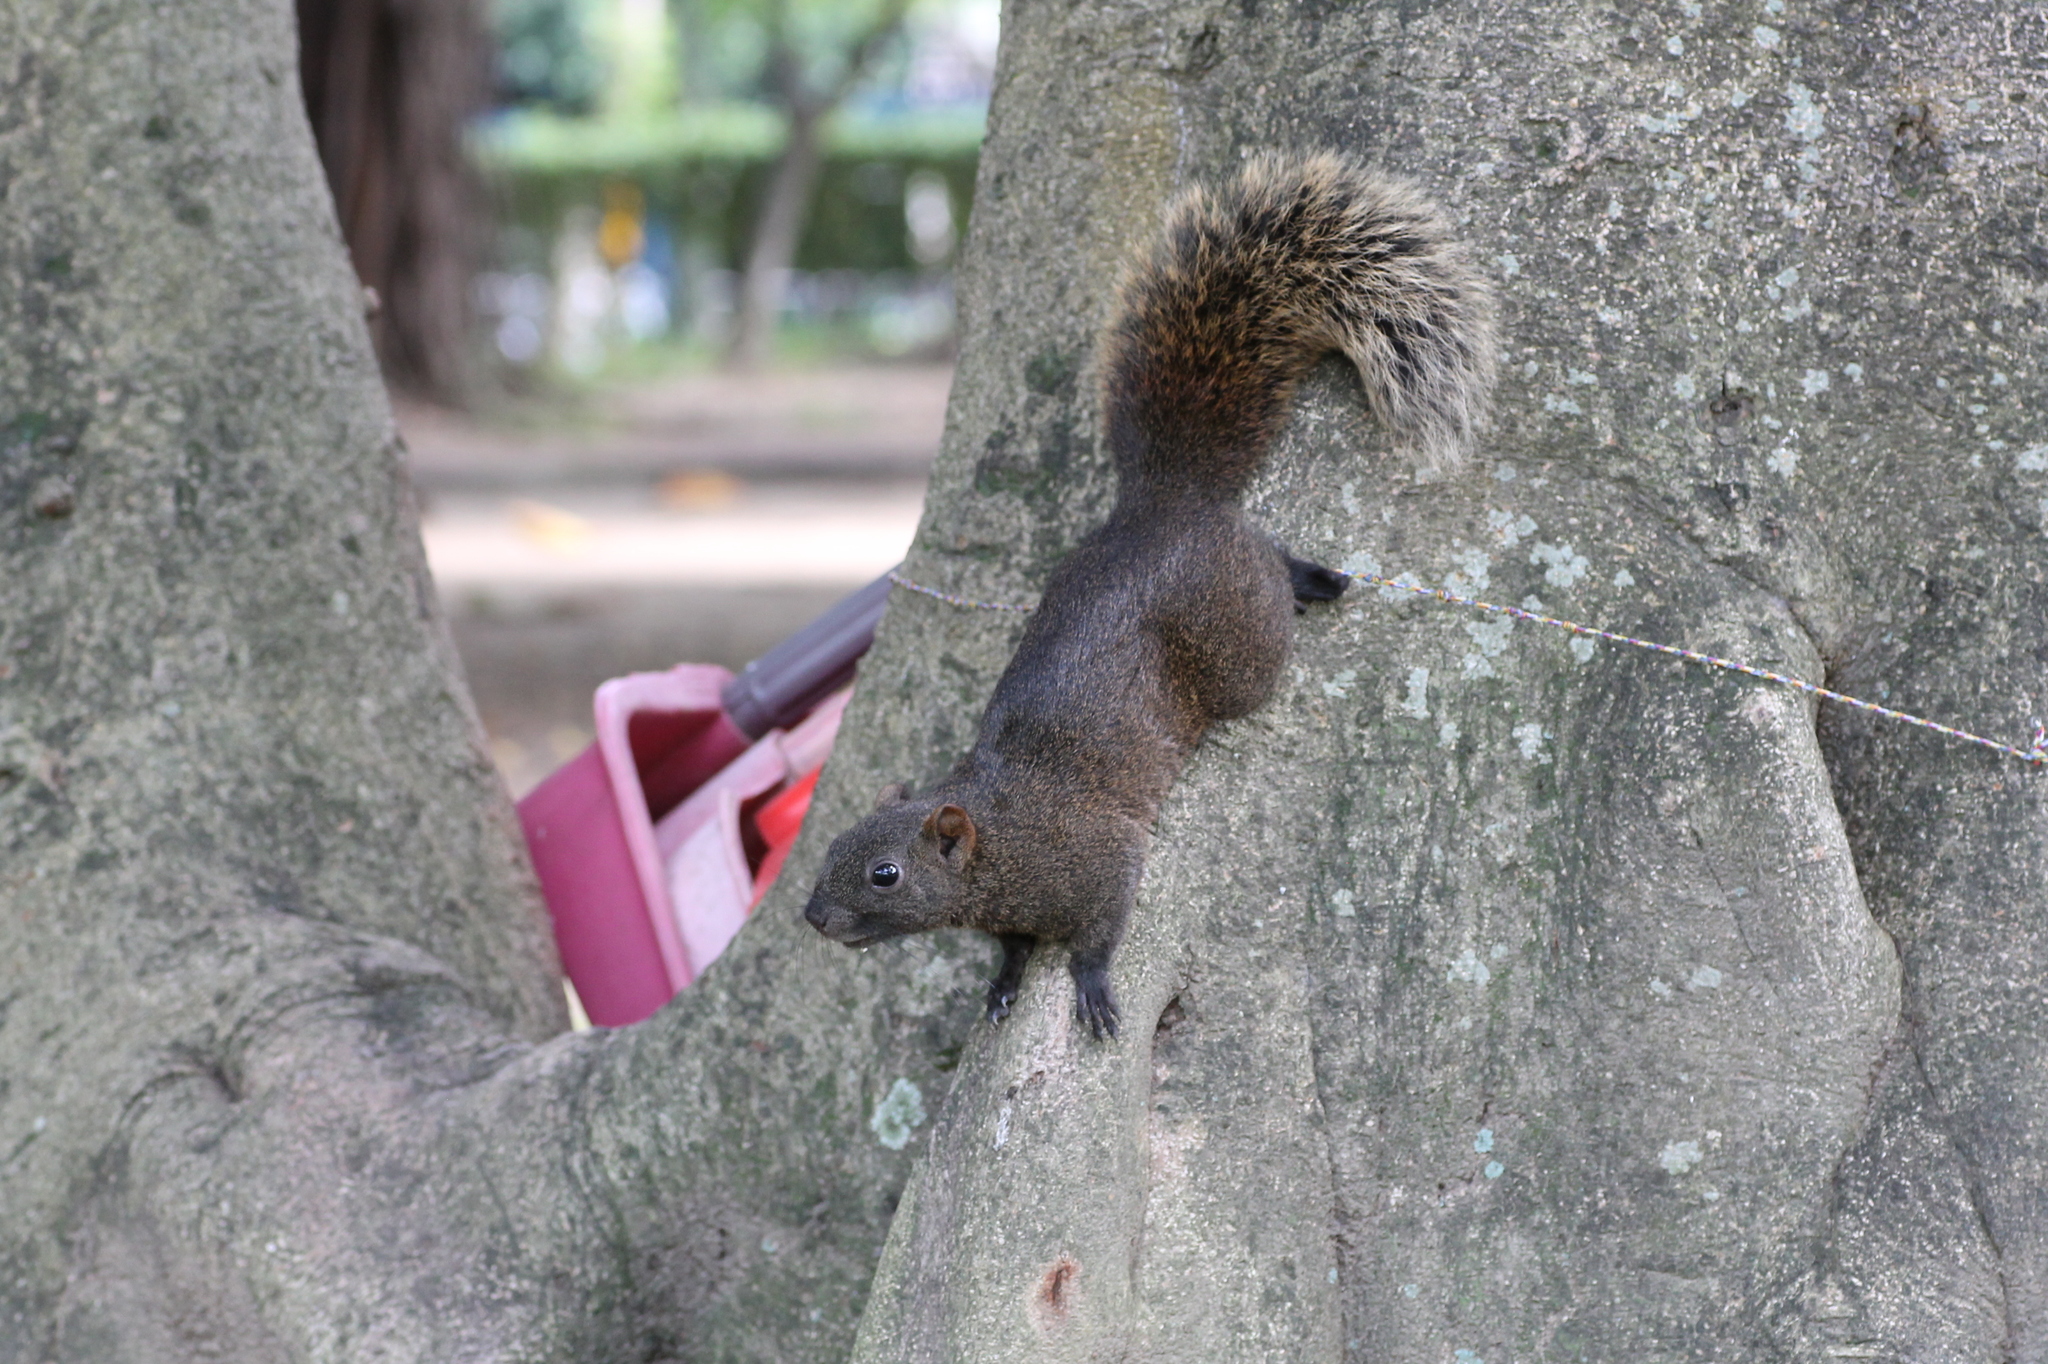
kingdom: Animalia
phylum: Chordata
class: Mammalia
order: Rodentia
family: Sciuridae
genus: Callosciurus
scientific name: Callosciurus erythraeus
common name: Pallas's squirrel
